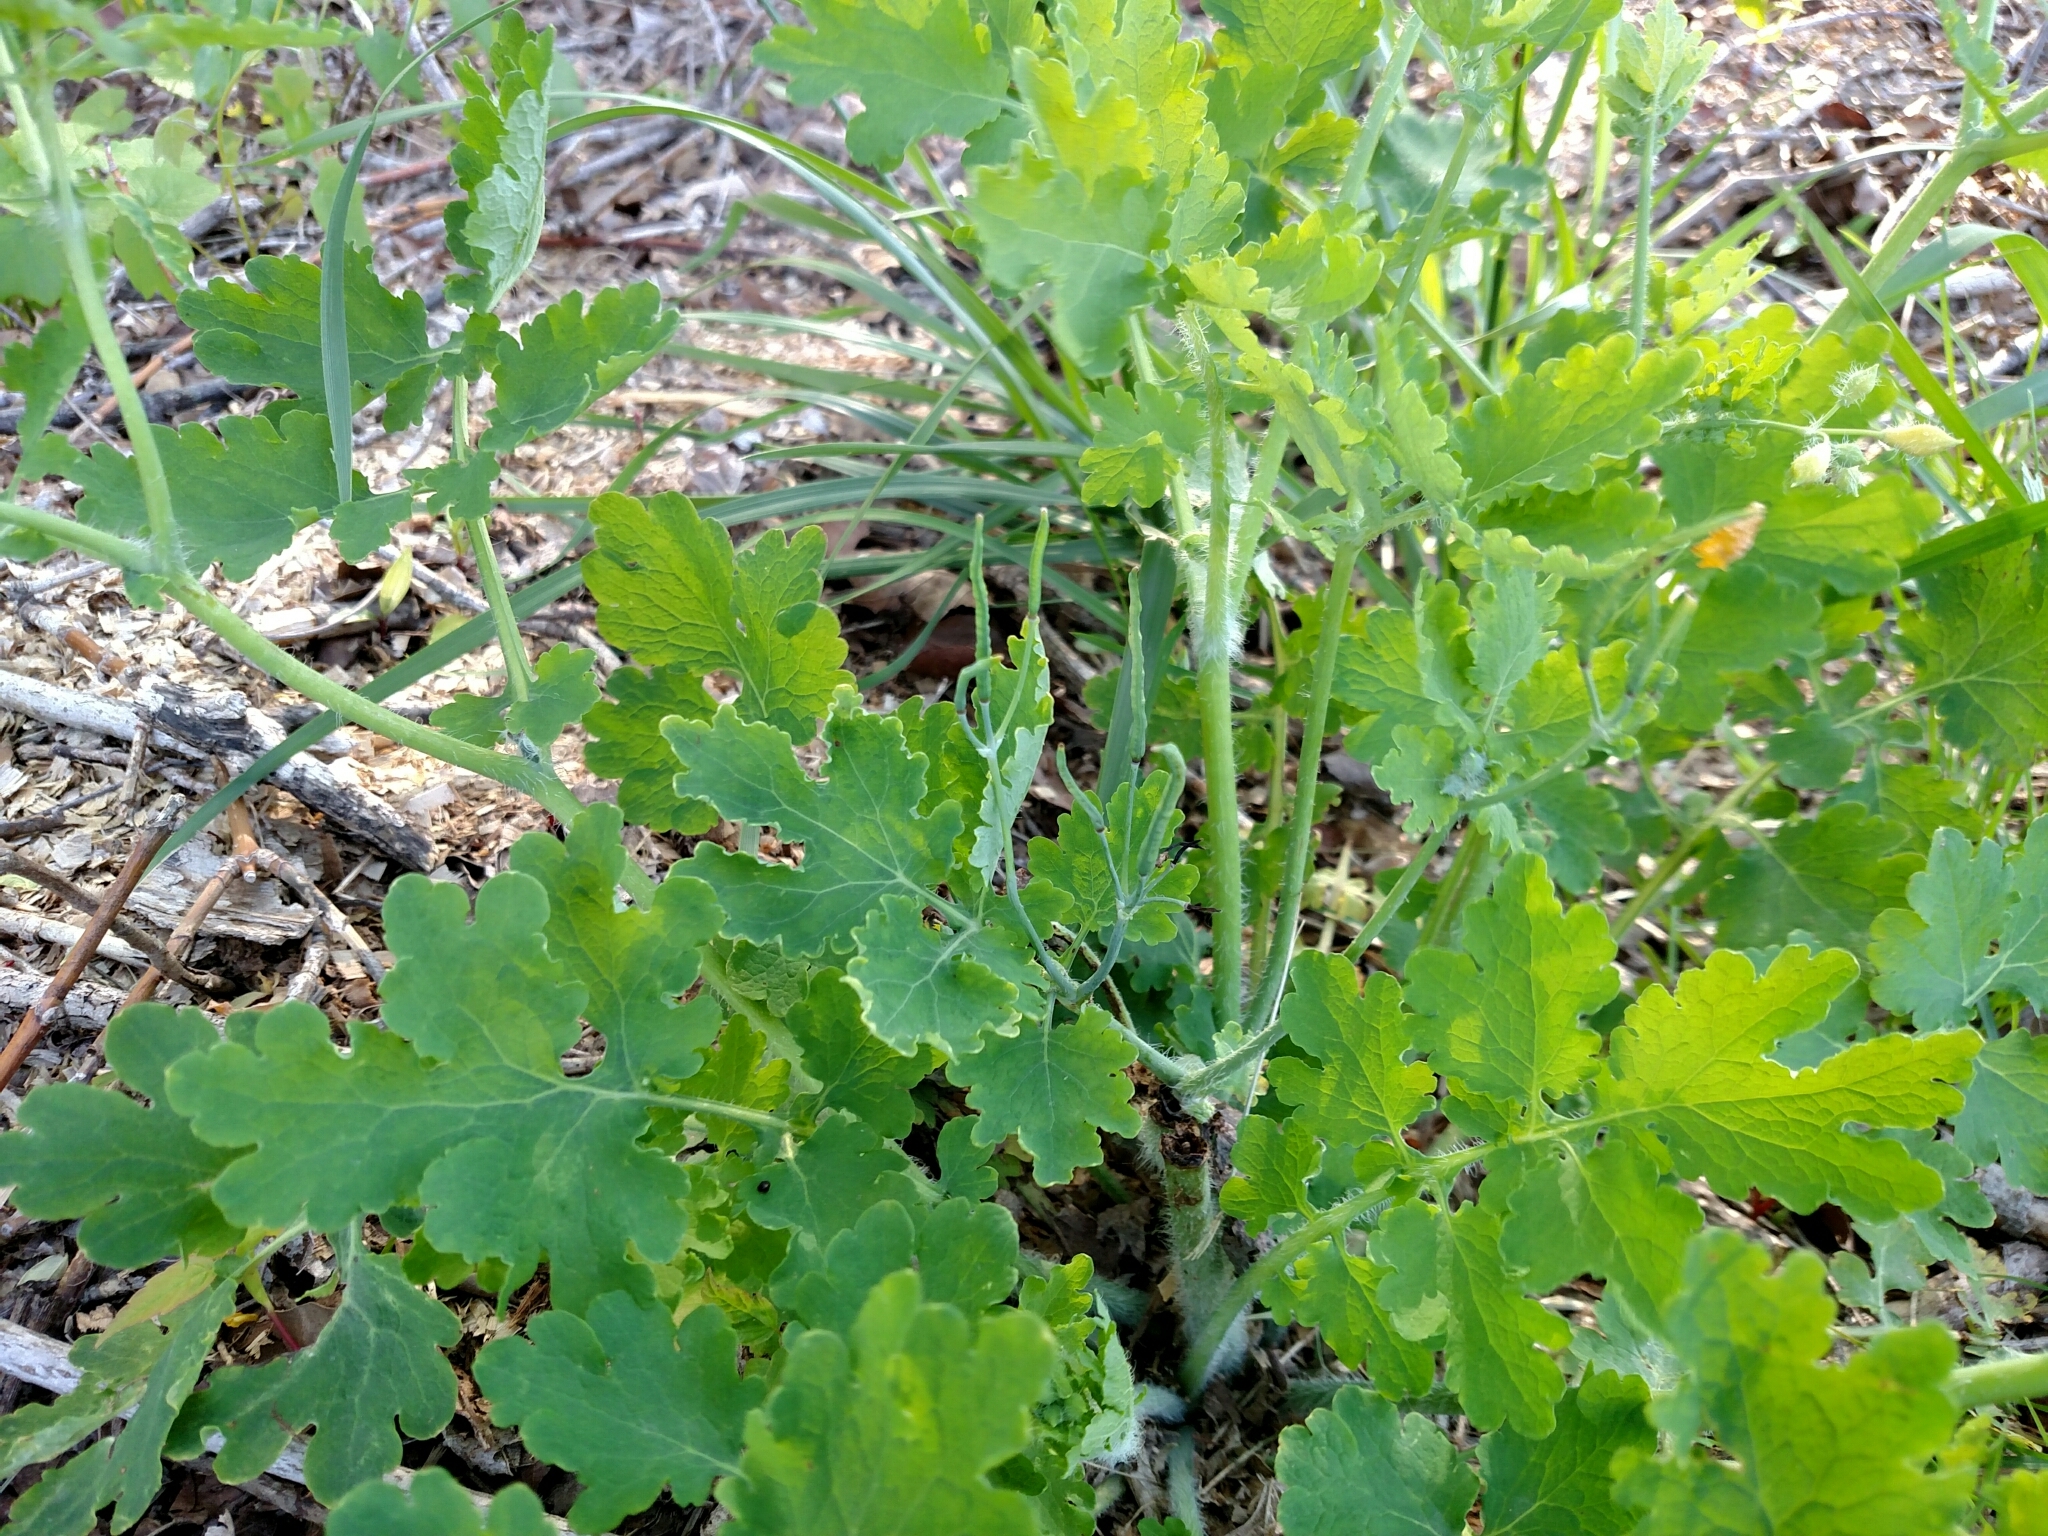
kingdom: Plantae
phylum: Tracheophyta
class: Magnoliopsida
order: Ranunculales
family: Papaveraceae
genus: Chelidonium
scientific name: Chelidonium majus
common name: Greater celandine
